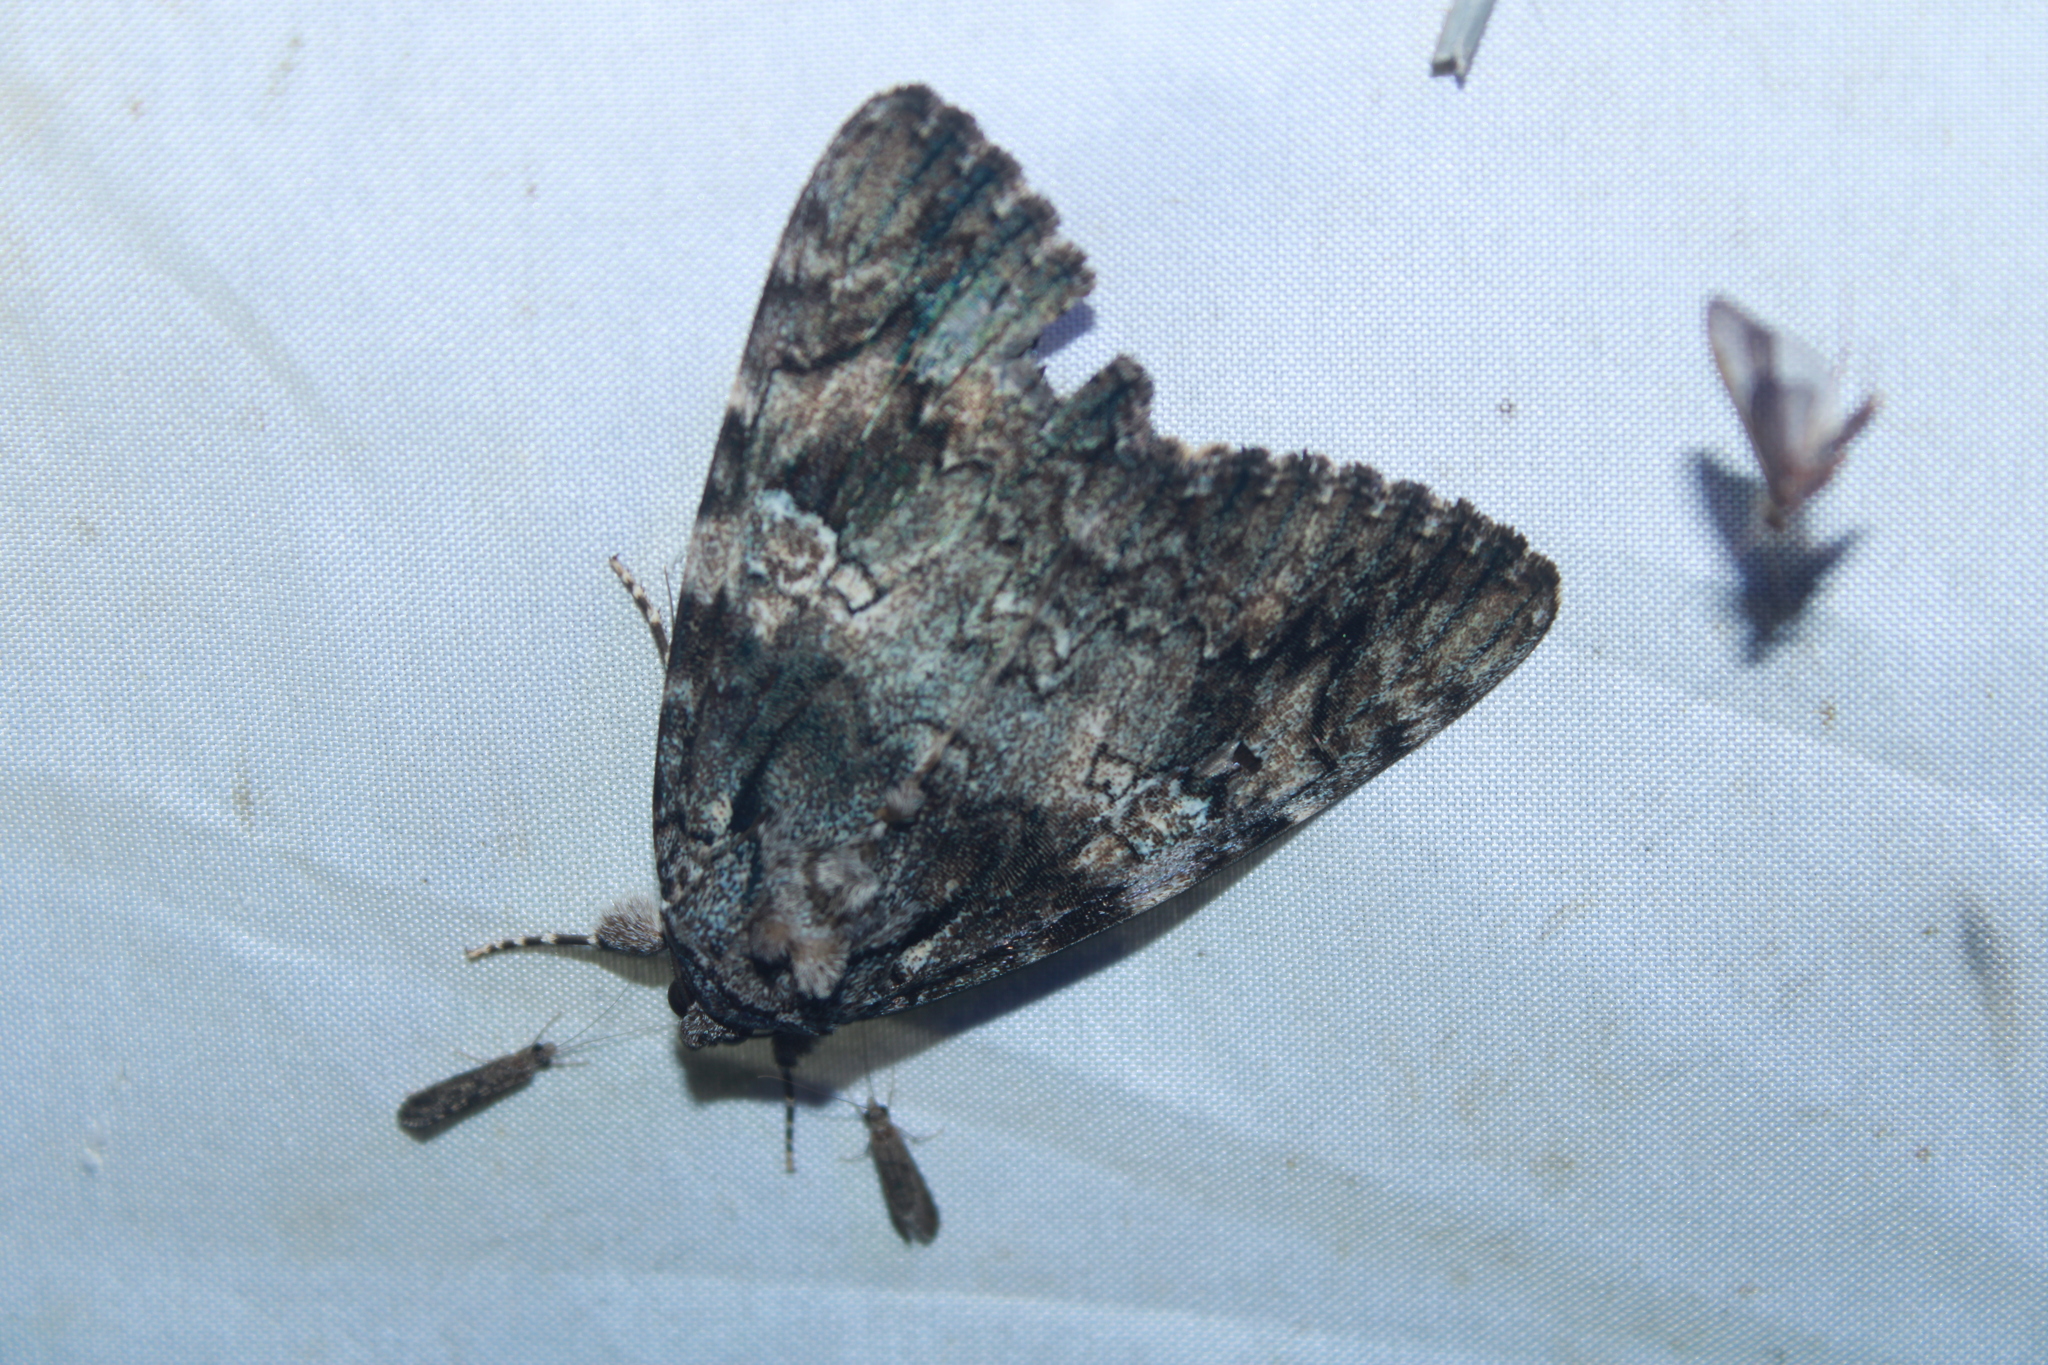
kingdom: Animalia
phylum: Arthropoda
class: Insecta
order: Lepidoptera
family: Erebidae
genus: Catocala
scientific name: Catocala ilia
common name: Ilia underwing
